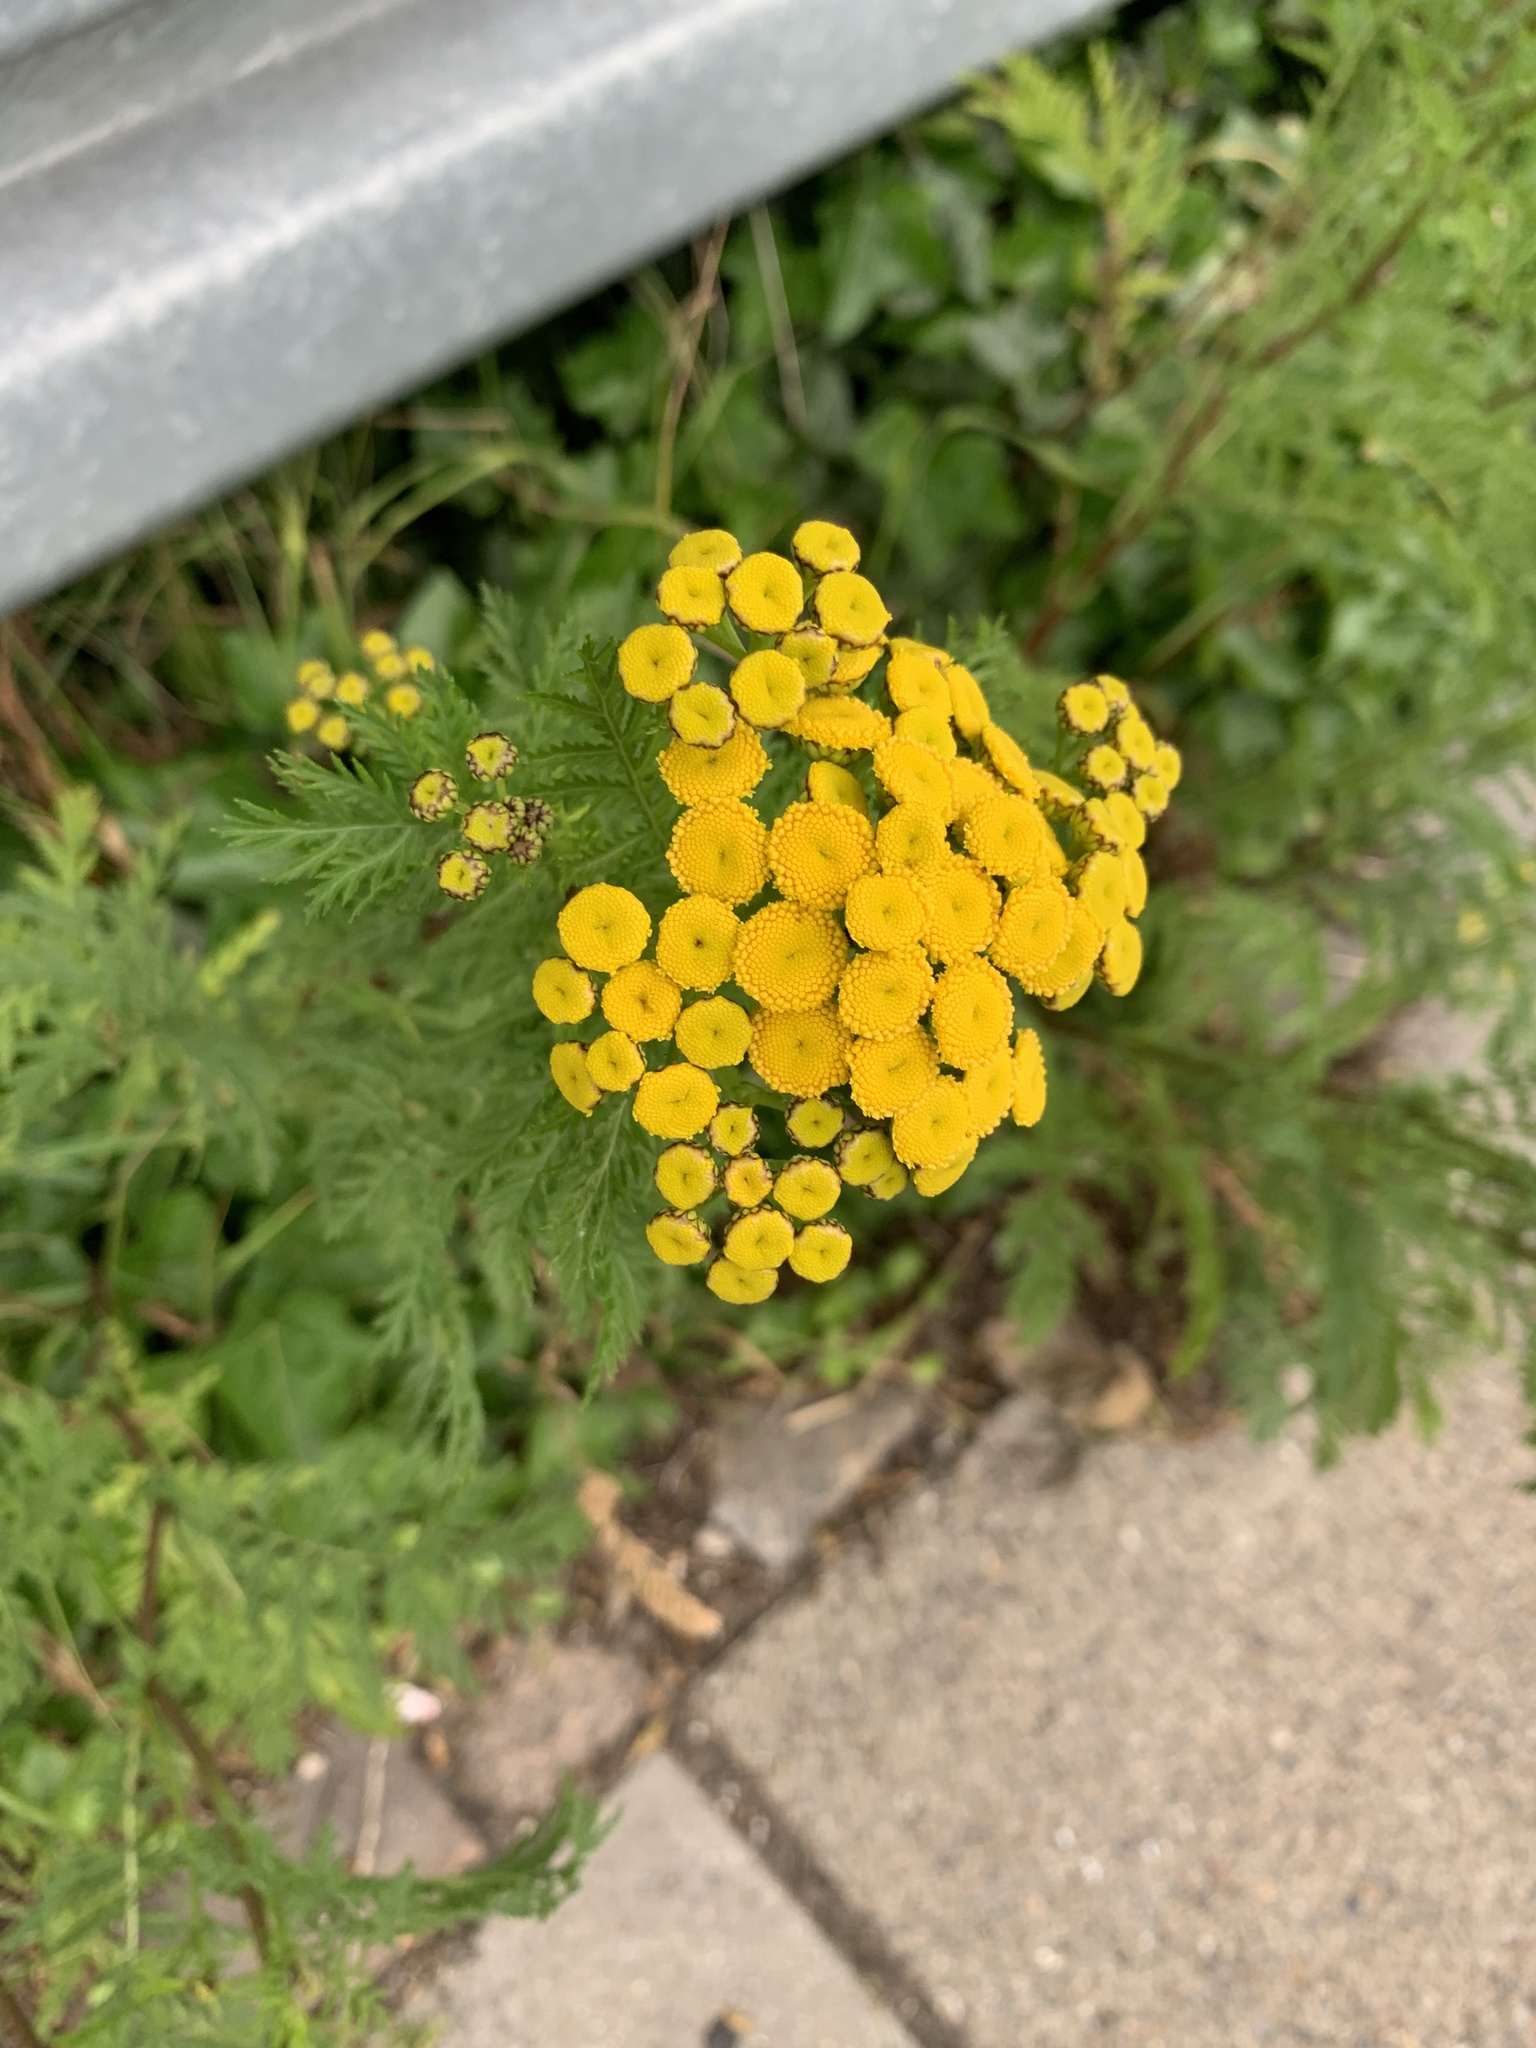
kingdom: Plantae
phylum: Tracheophyta
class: Magnoliopsida
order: Asterales
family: Asteraceae
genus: Tanacetum
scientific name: Tanacetum vulgare
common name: Common tansy
